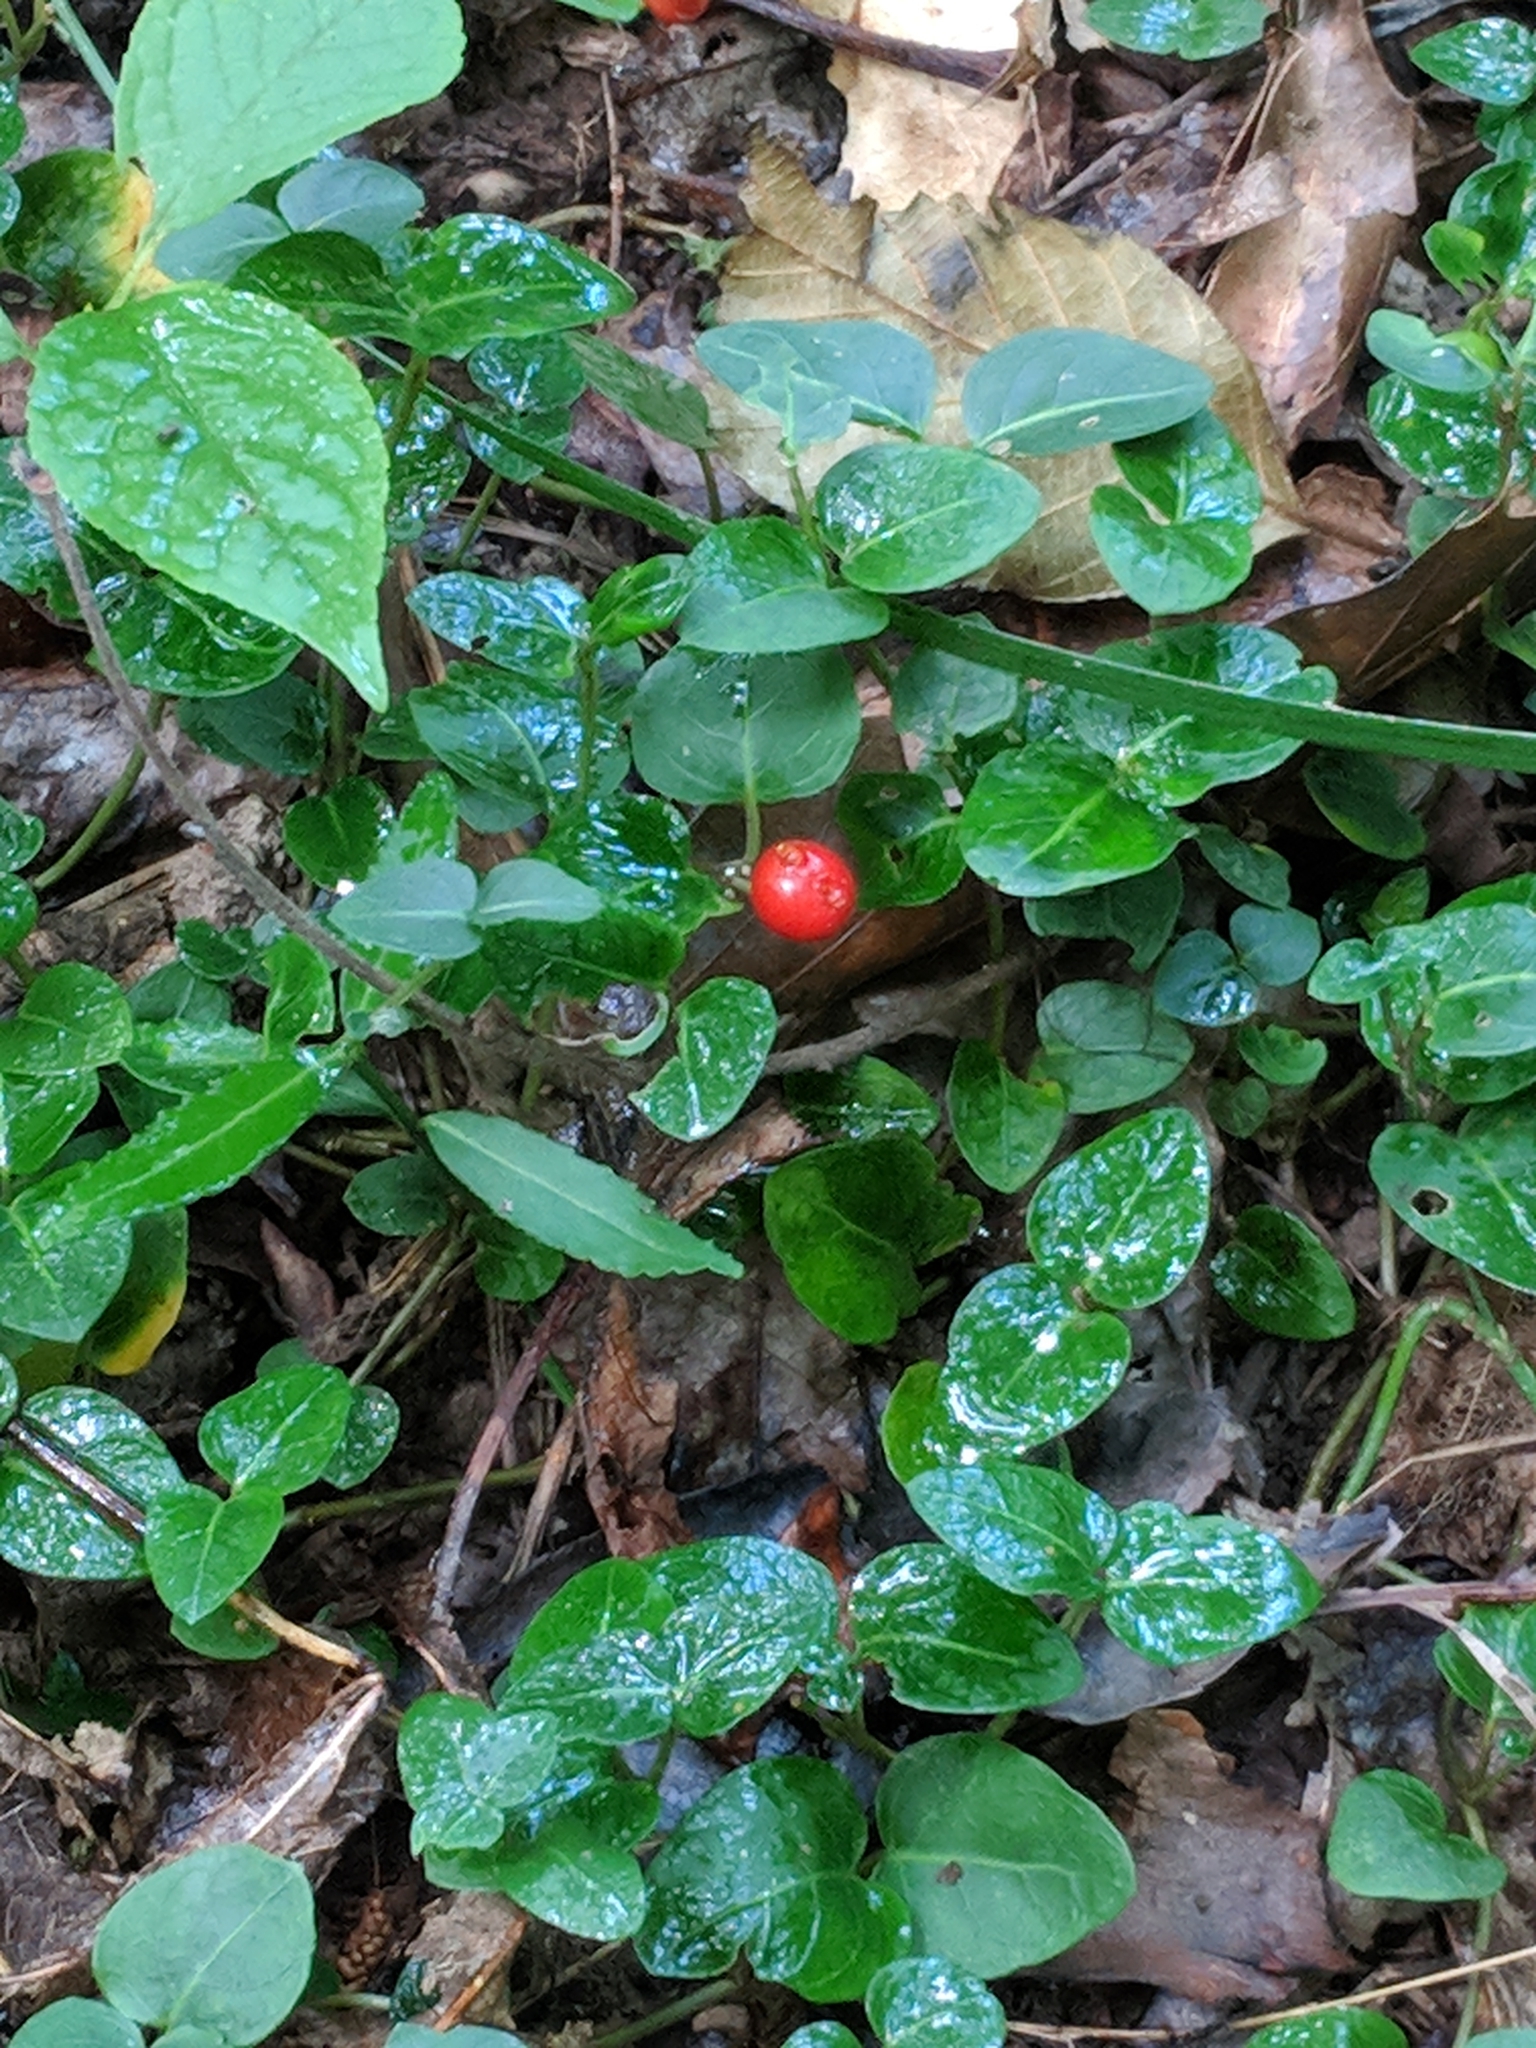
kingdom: Plantae
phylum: Tracheophyta
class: Magnoliopsida
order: Gentianales
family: Rubiaceae
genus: Mitchella
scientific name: Mitchella repens
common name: Partridge-berry
